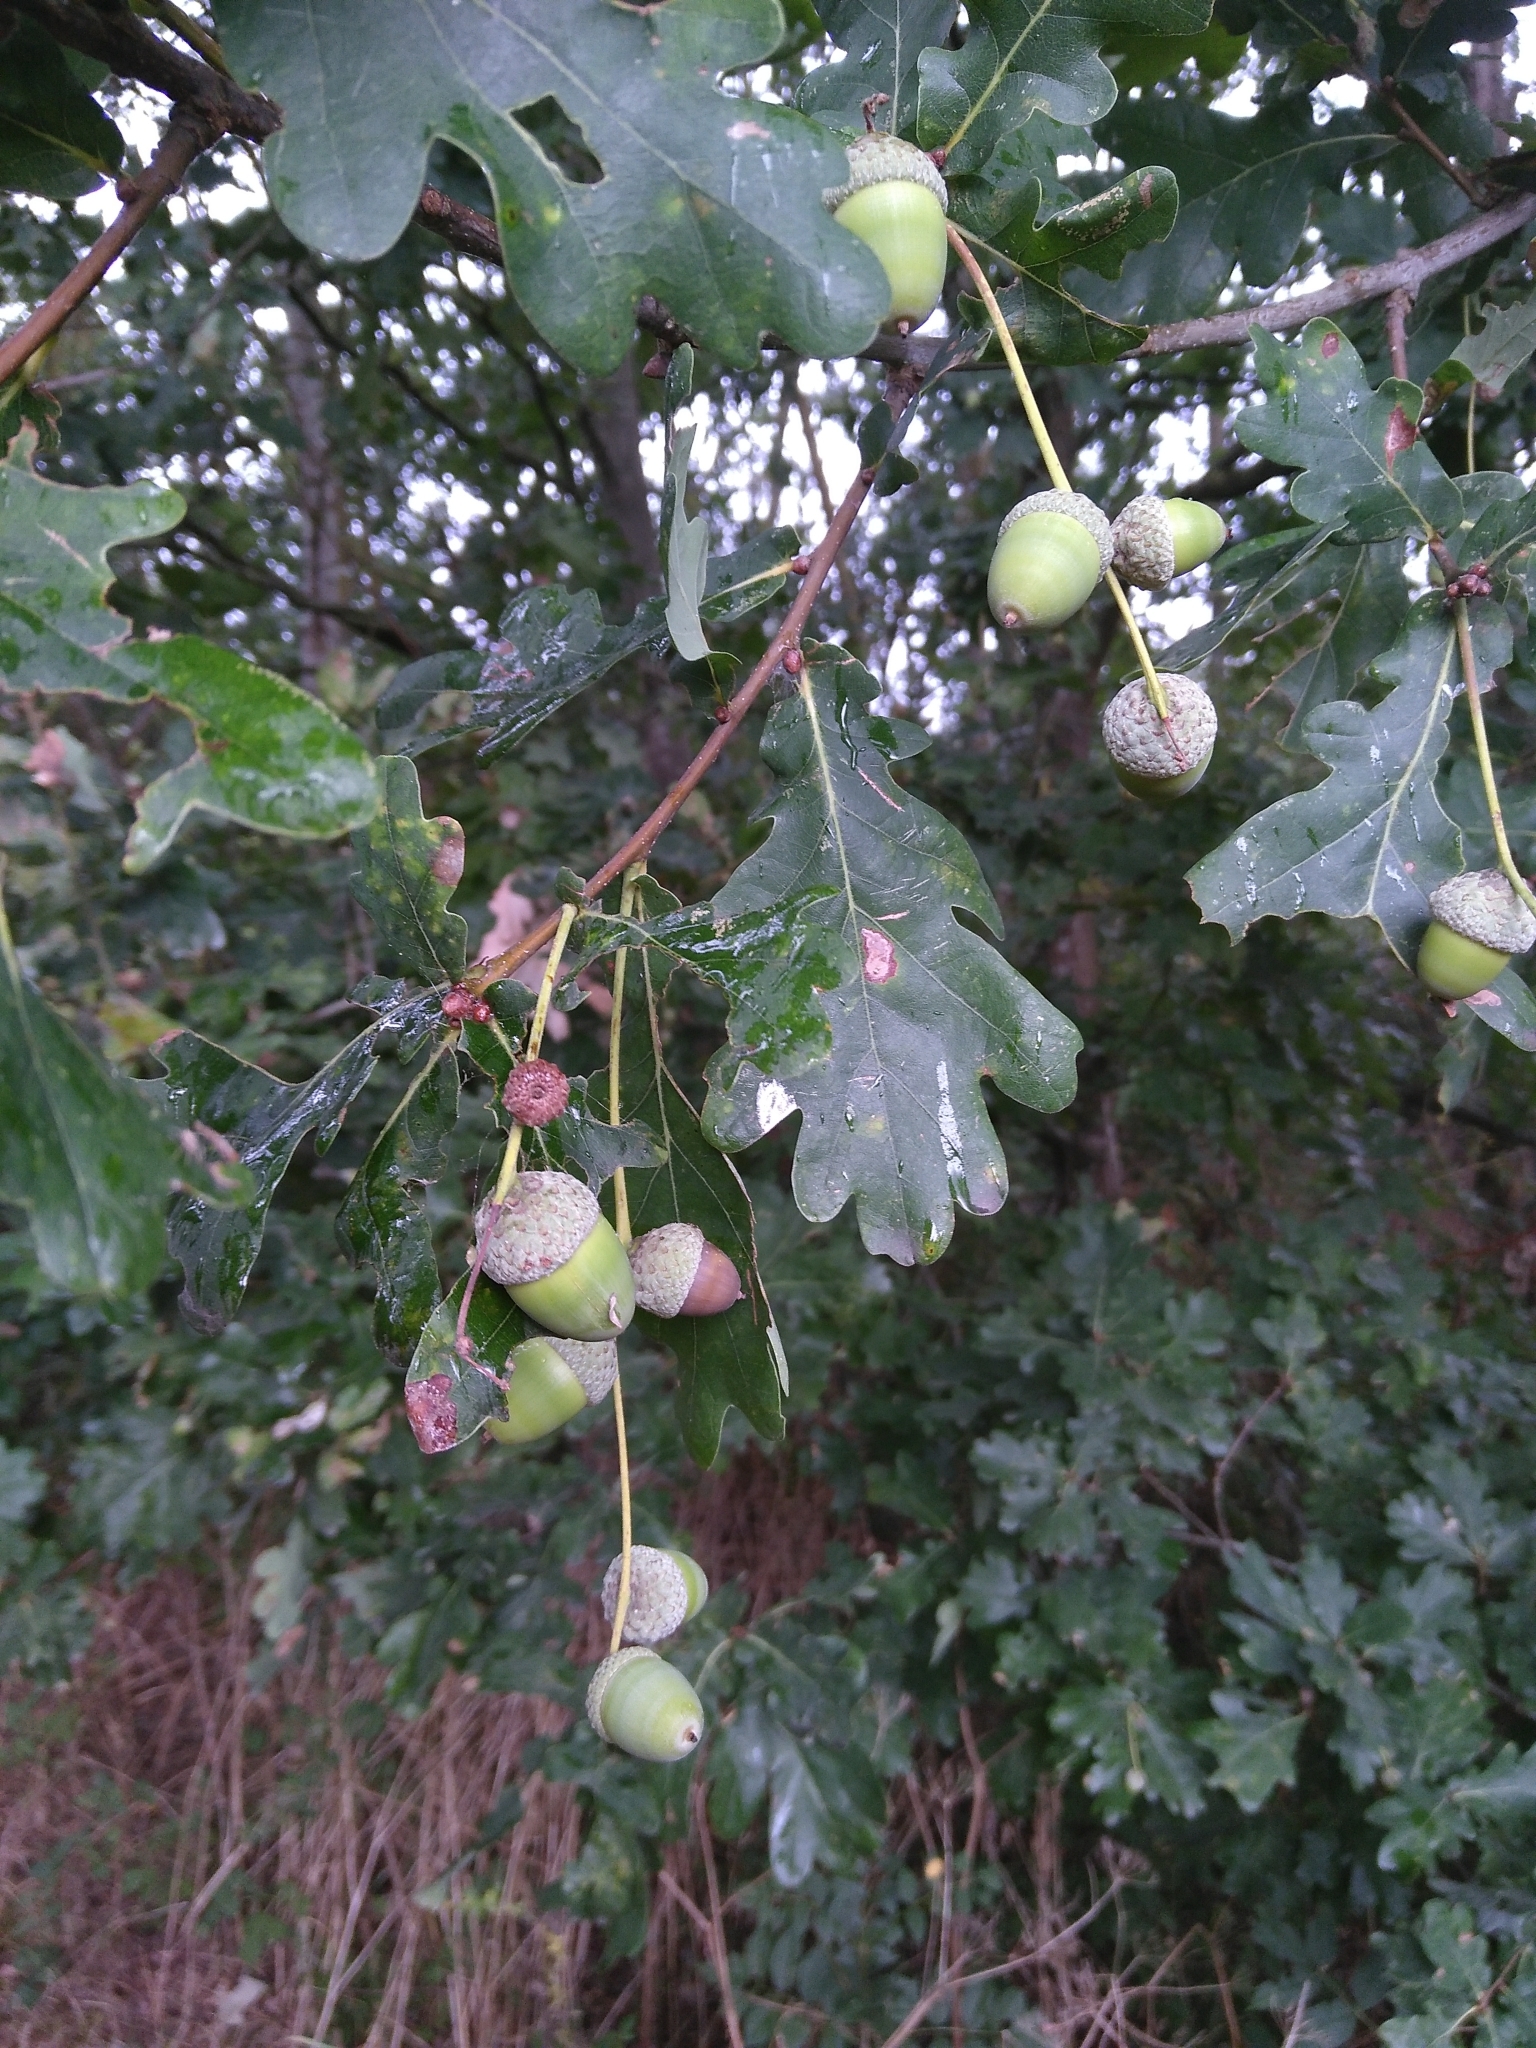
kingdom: Plantae
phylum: Tracheophyta
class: Magnoliopsida
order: Fagales
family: Fagaceae
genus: Quercus
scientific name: Quercus robur
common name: Pedunculate oak
